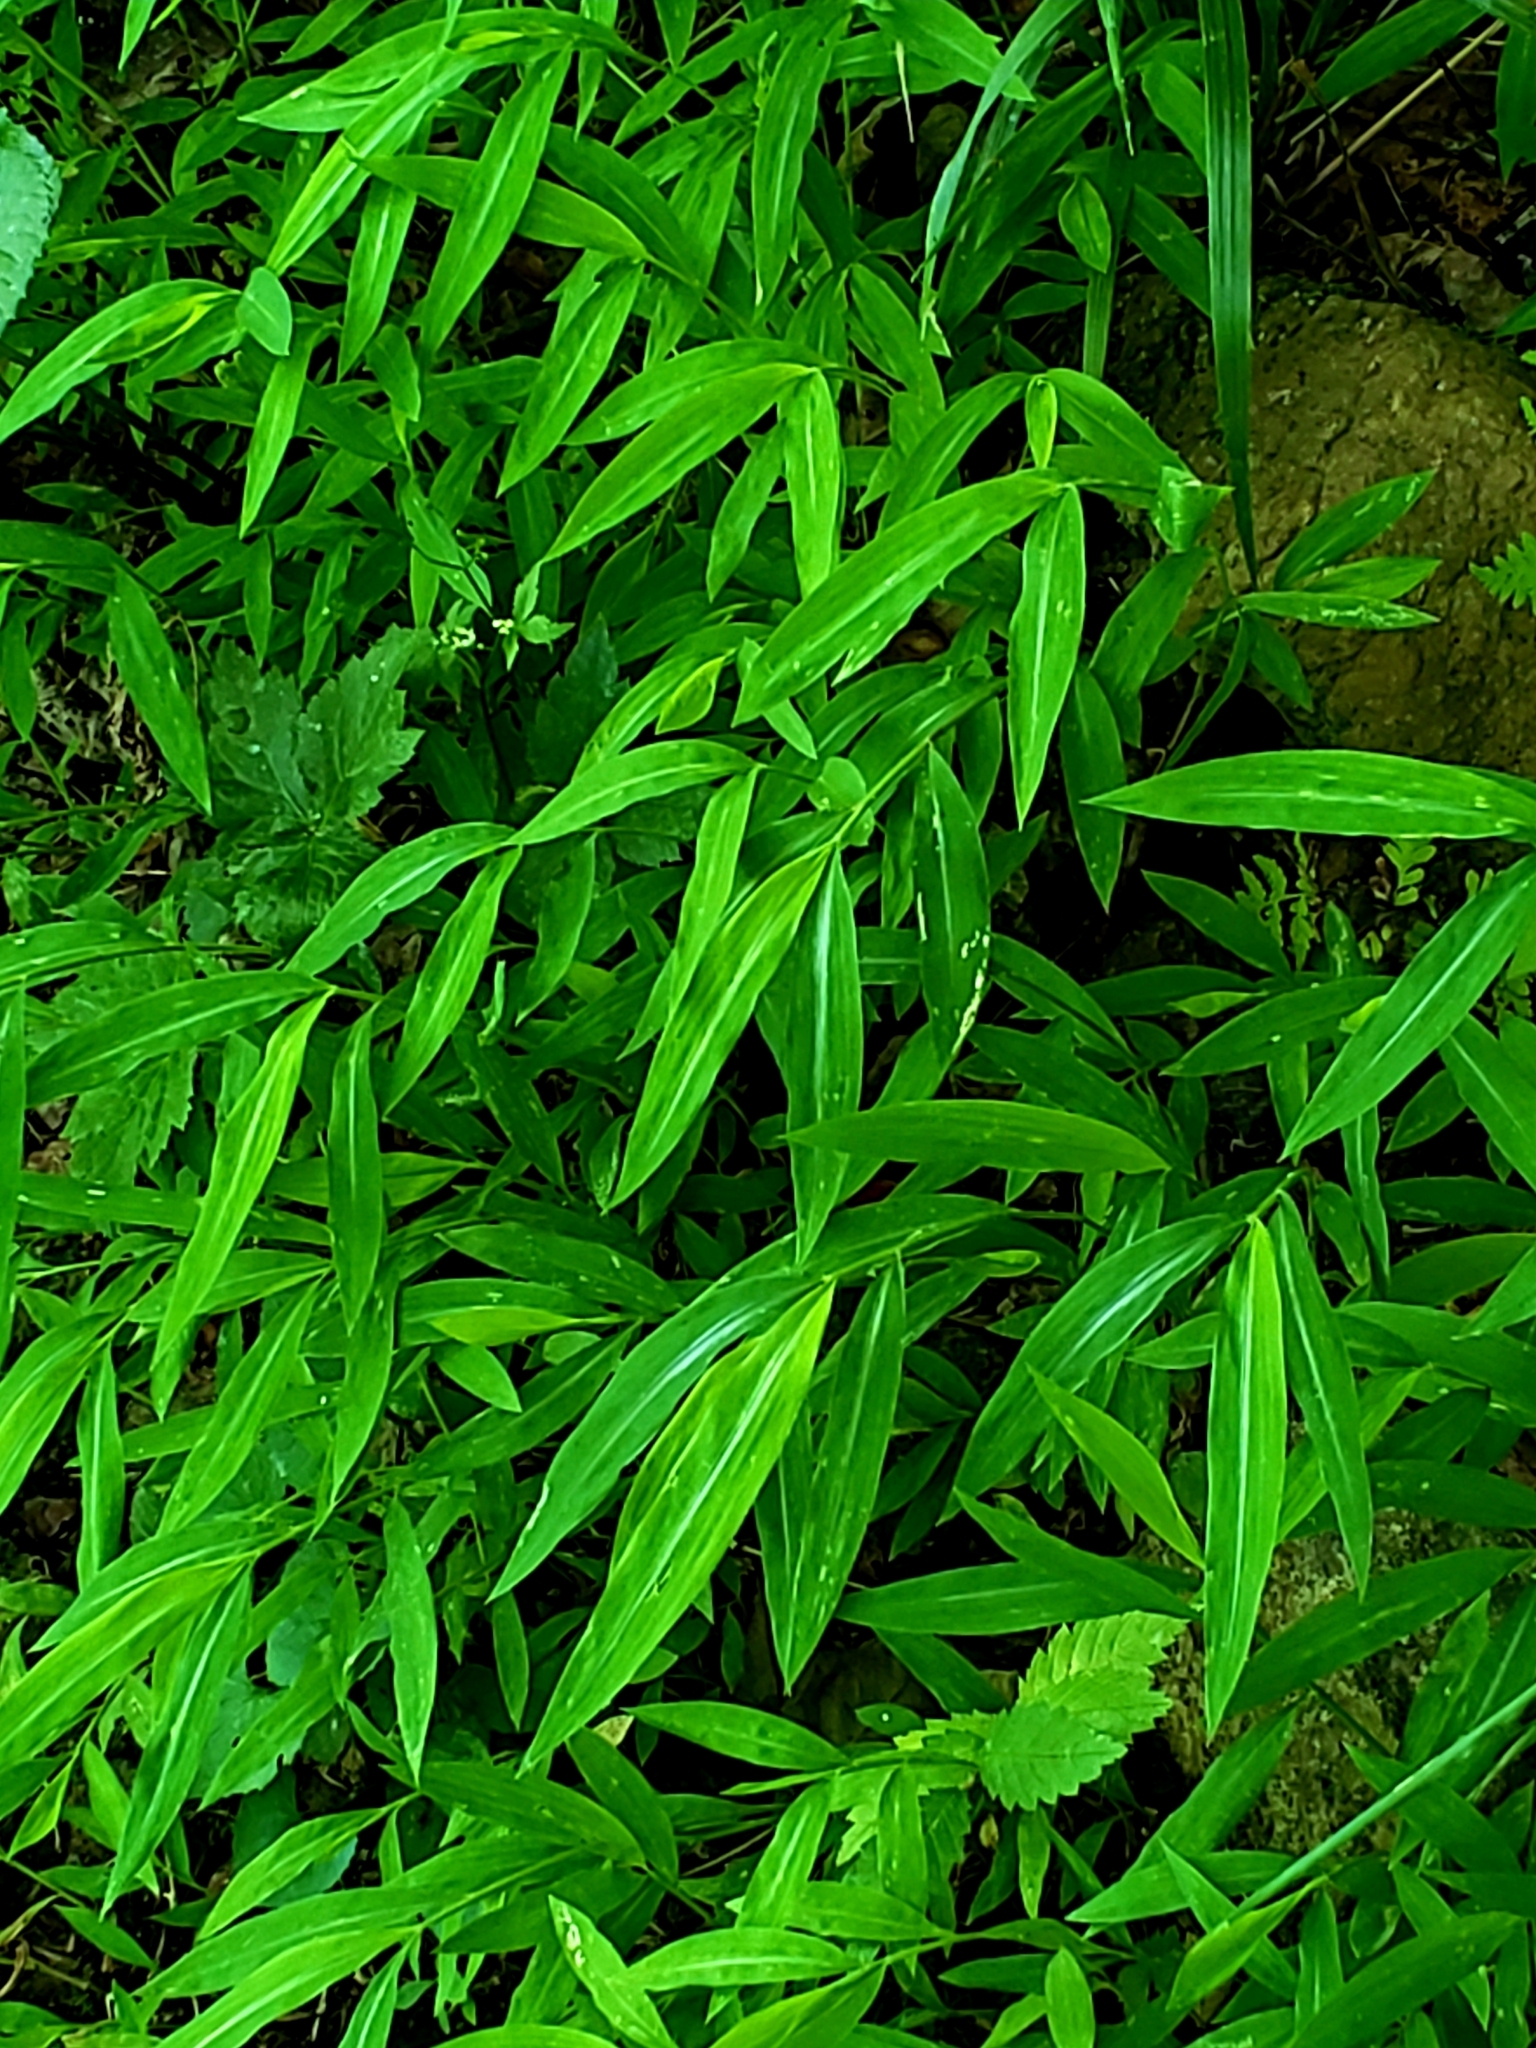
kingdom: Plantae
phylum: Tracheophyta
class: Liliopsida
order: Poales
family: Poaceae
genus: Microstegium
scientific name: Microstegium vimineum
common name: Japanese stiltgrass
